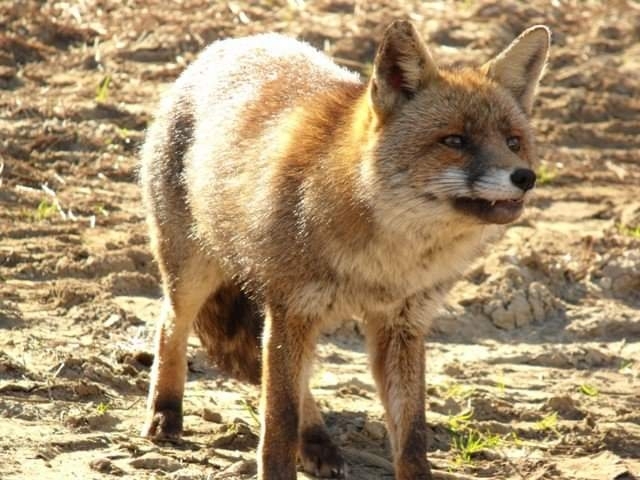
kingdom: Animalia
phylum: Chordata
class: Mammalia
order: Carnivora
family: Canidae
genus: Vulpes
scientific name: Vulpes vulpes
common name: Red fox
